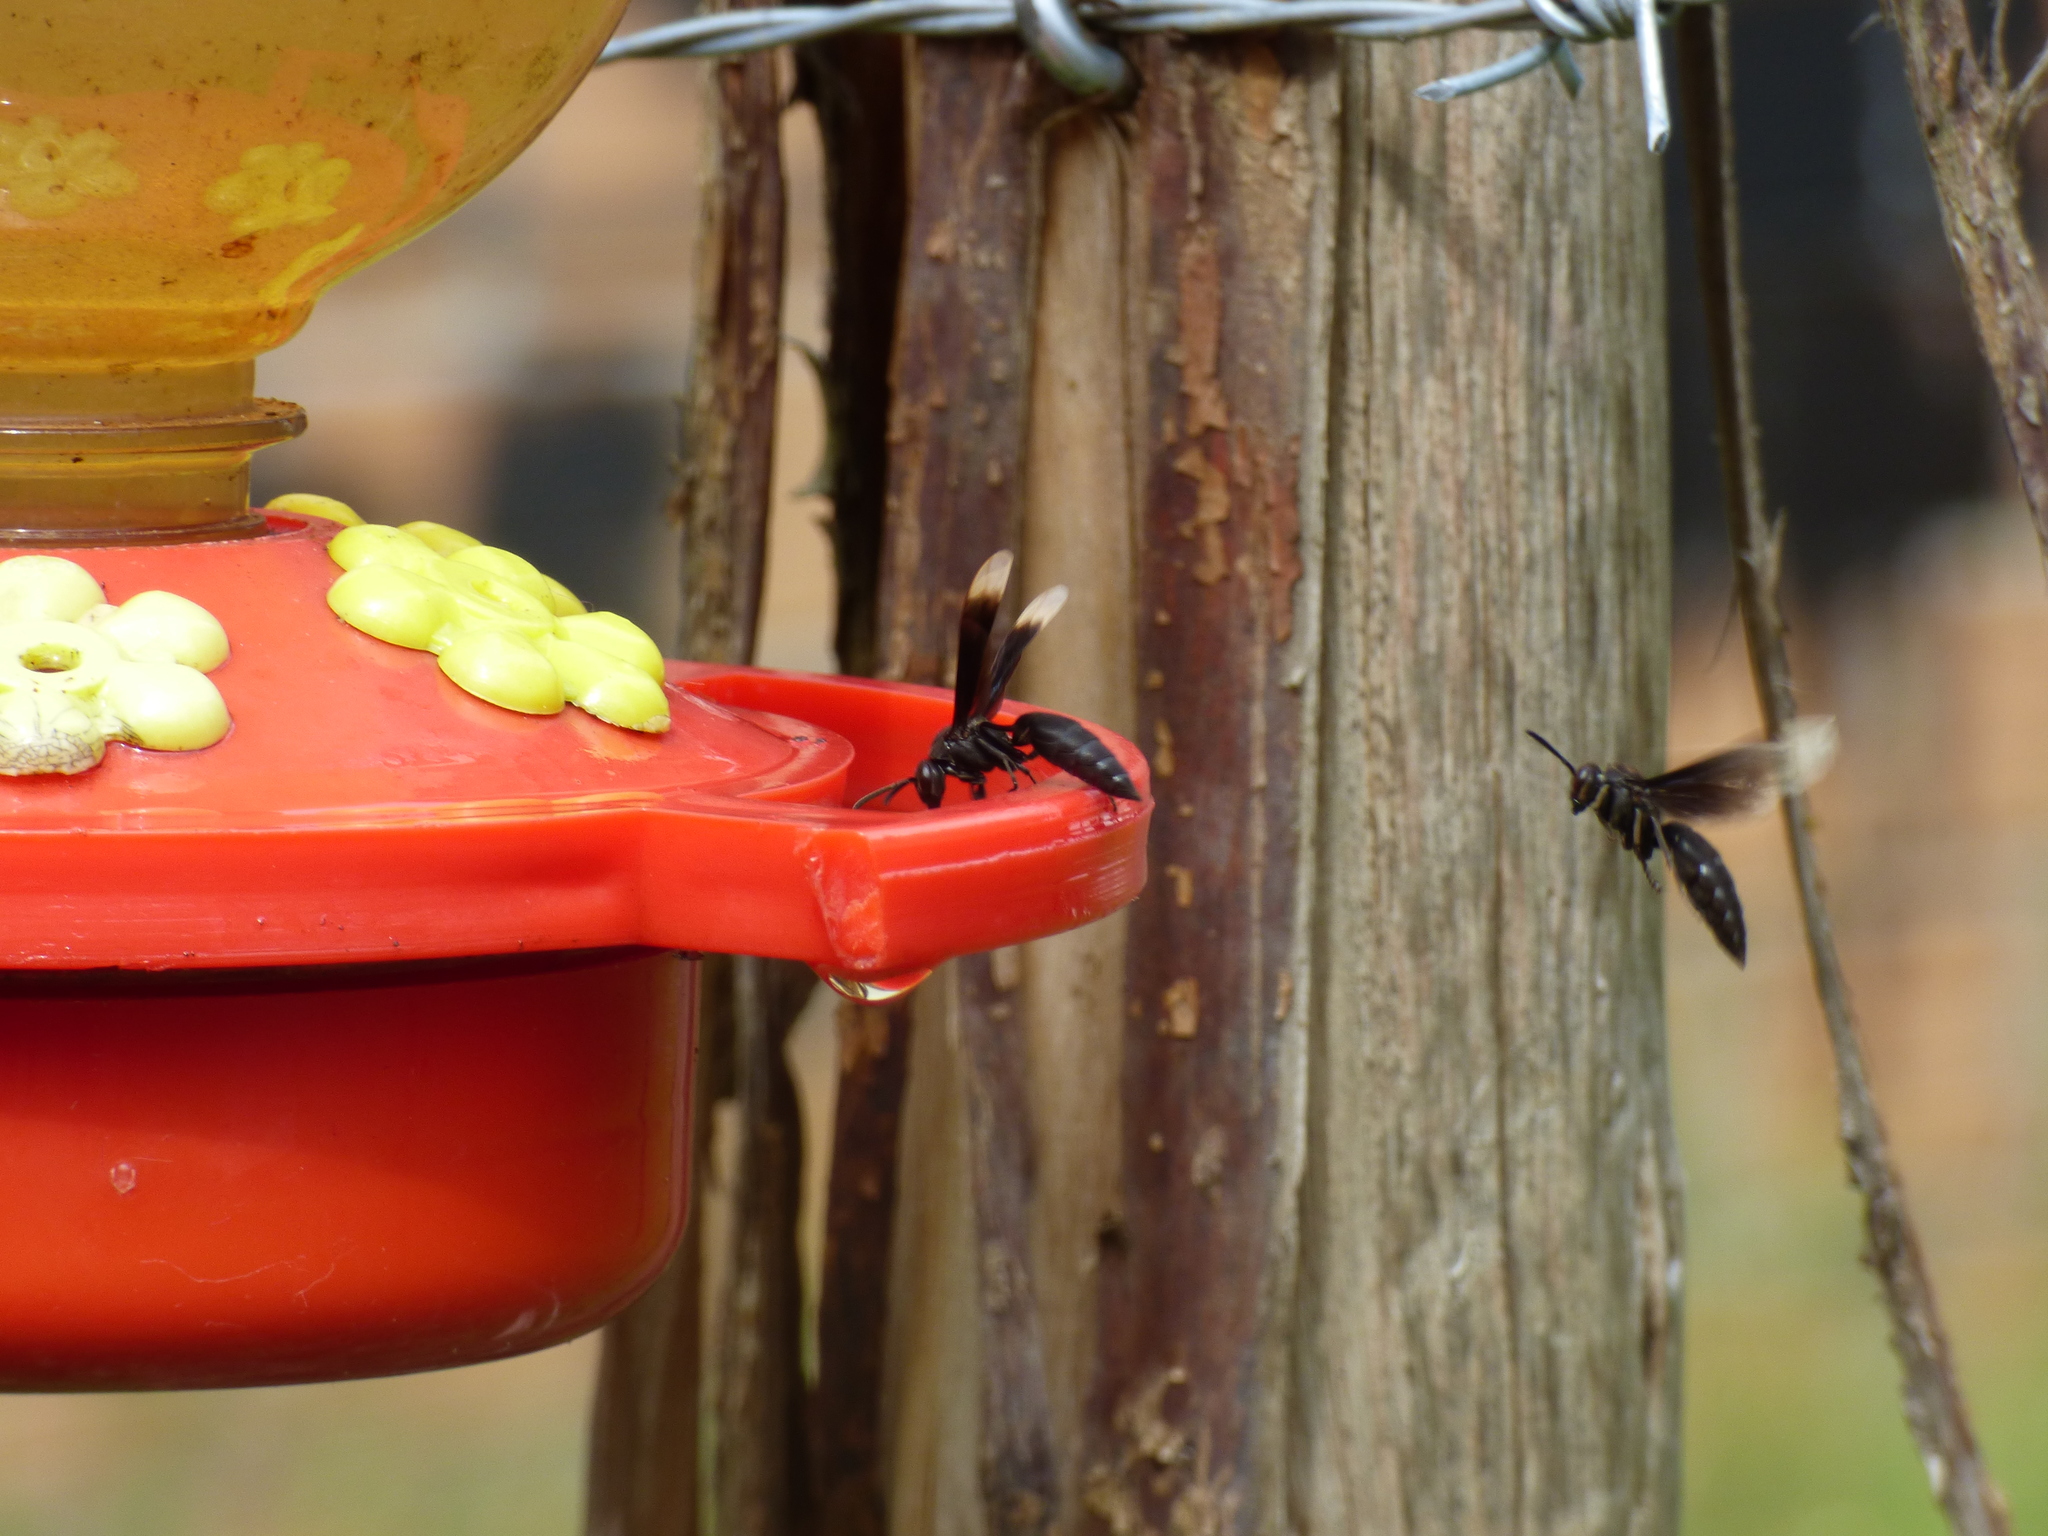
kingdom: Animalia
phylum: Arthropoda
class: Insecta
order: Hymenoptera
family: Vespidae
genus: Parachartergus
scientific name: Parachartergus apicalis
